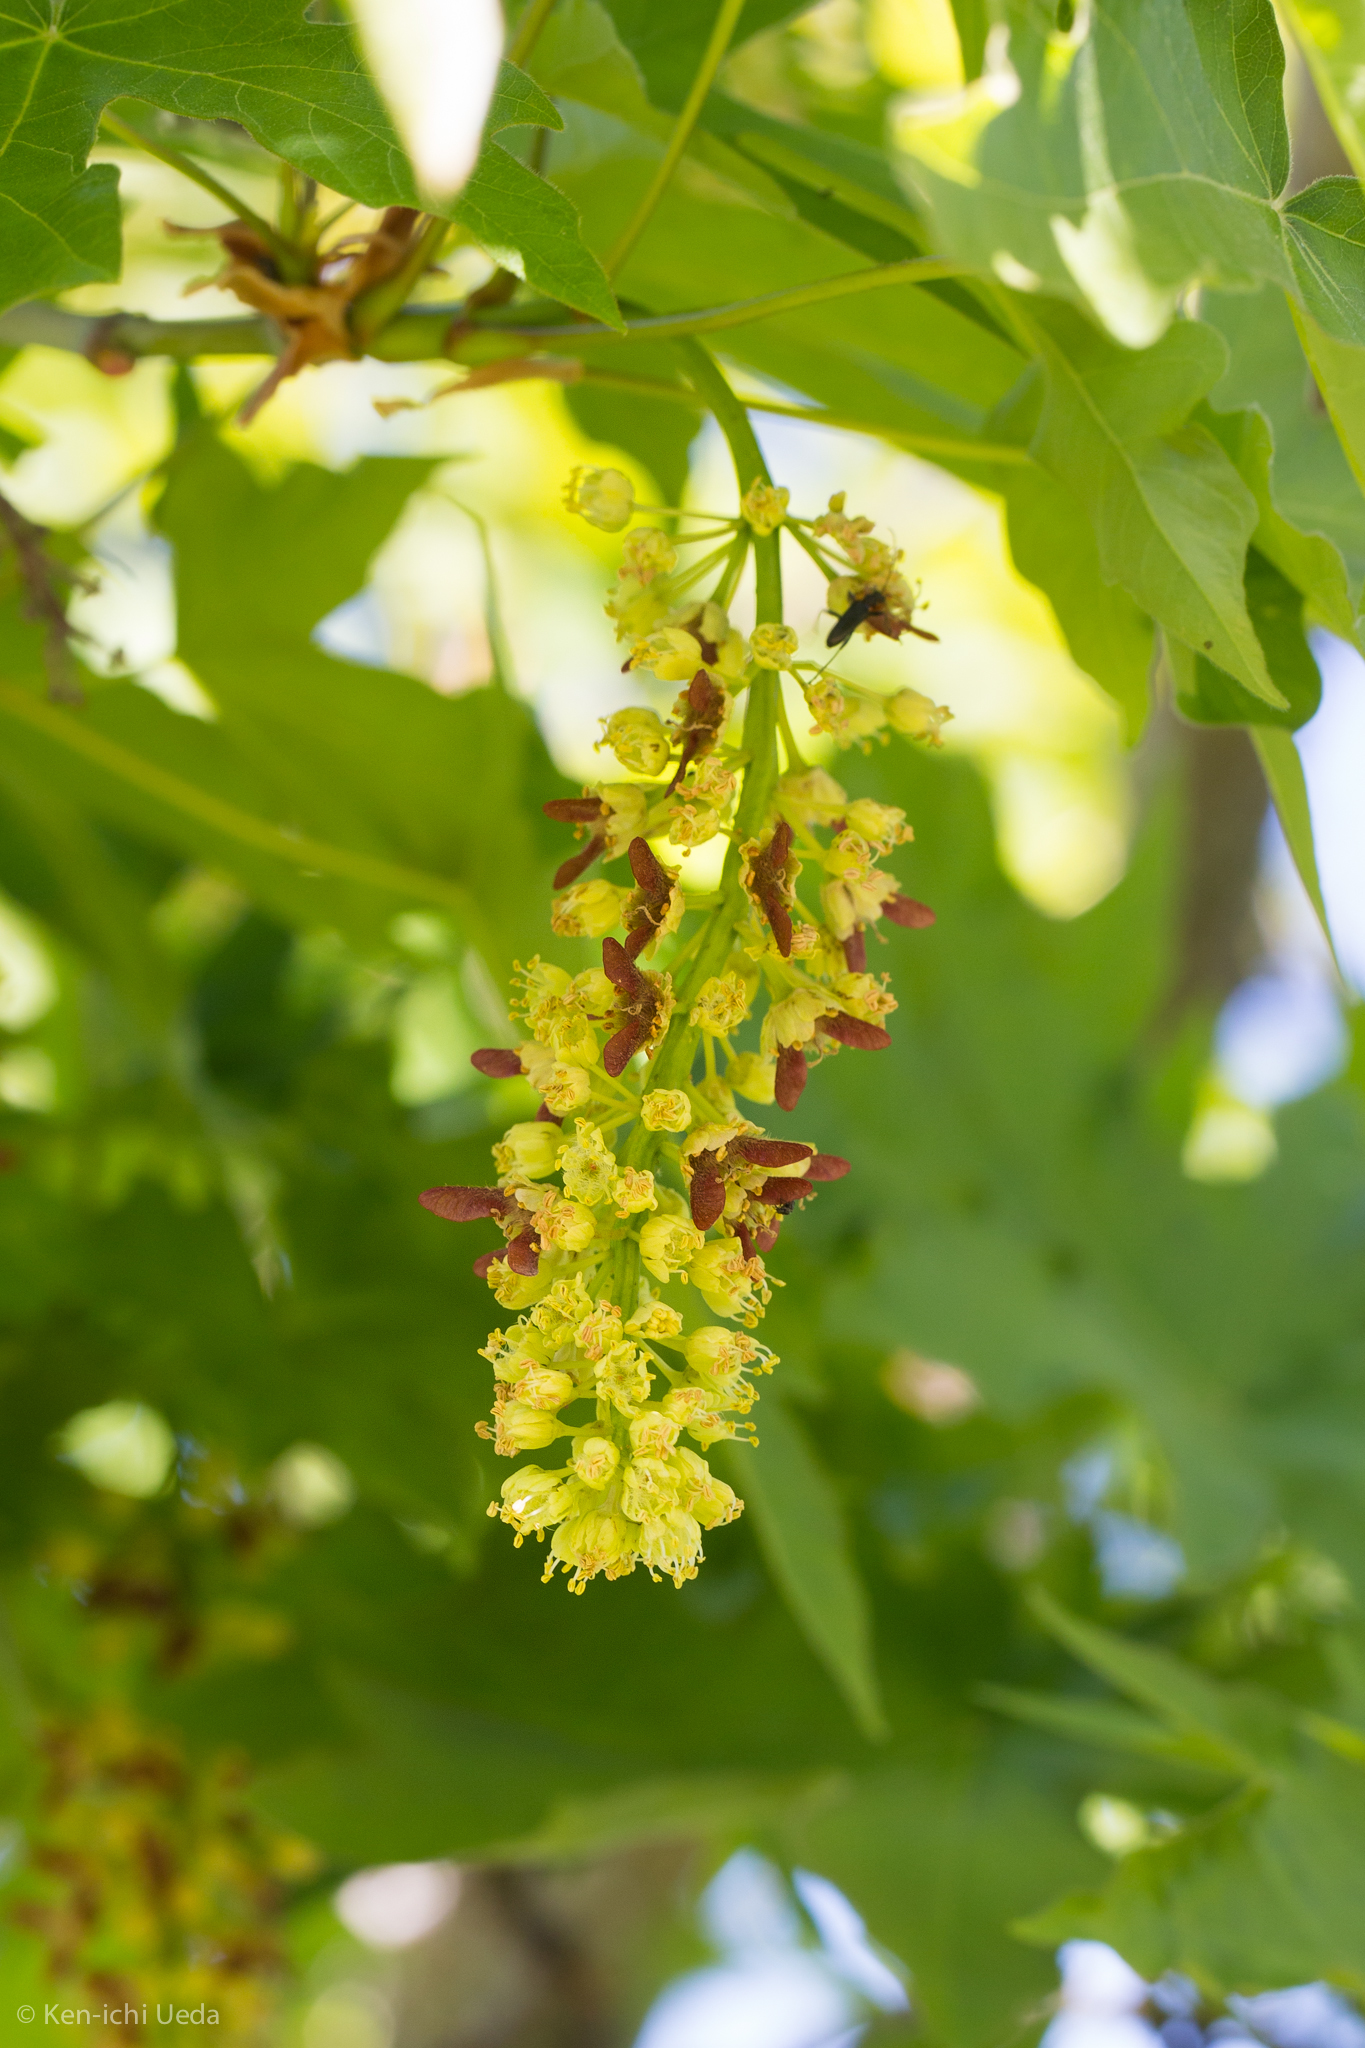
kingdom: Plantae
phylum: Tracheophyta
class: Magnoliopsida
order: Sapindales
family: Sapindaceae
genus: Acer
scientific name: Acer macrophyllum
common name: Oregon maple
